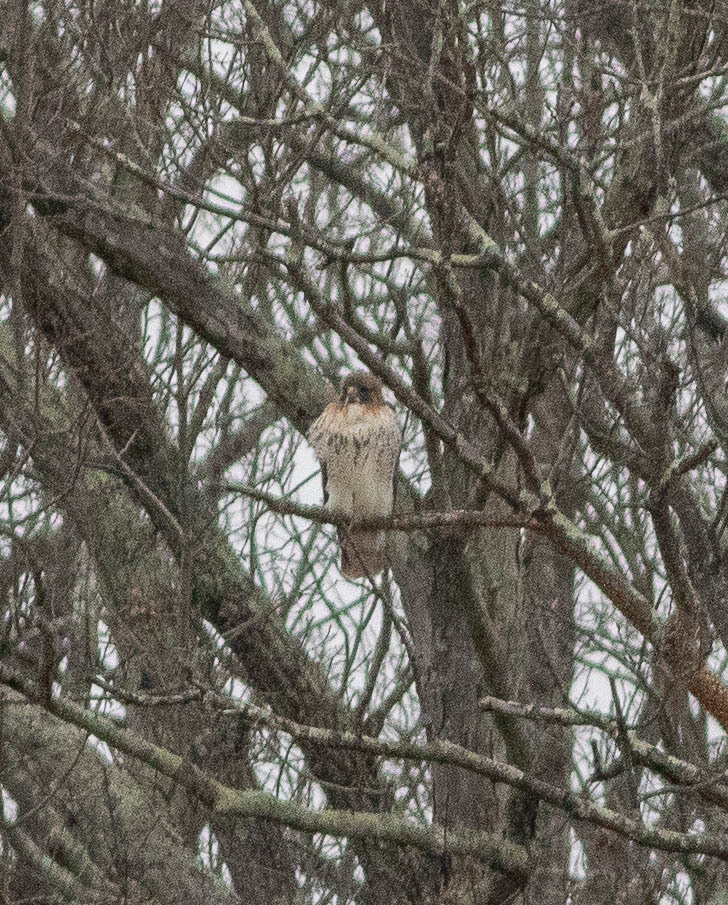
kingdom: Animalia
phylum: Chordata
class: Aves
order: Accipitriformes
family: Accipitridae
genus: Buteo
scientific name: Buteo jamaicensis
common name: Red-tailed hawk
